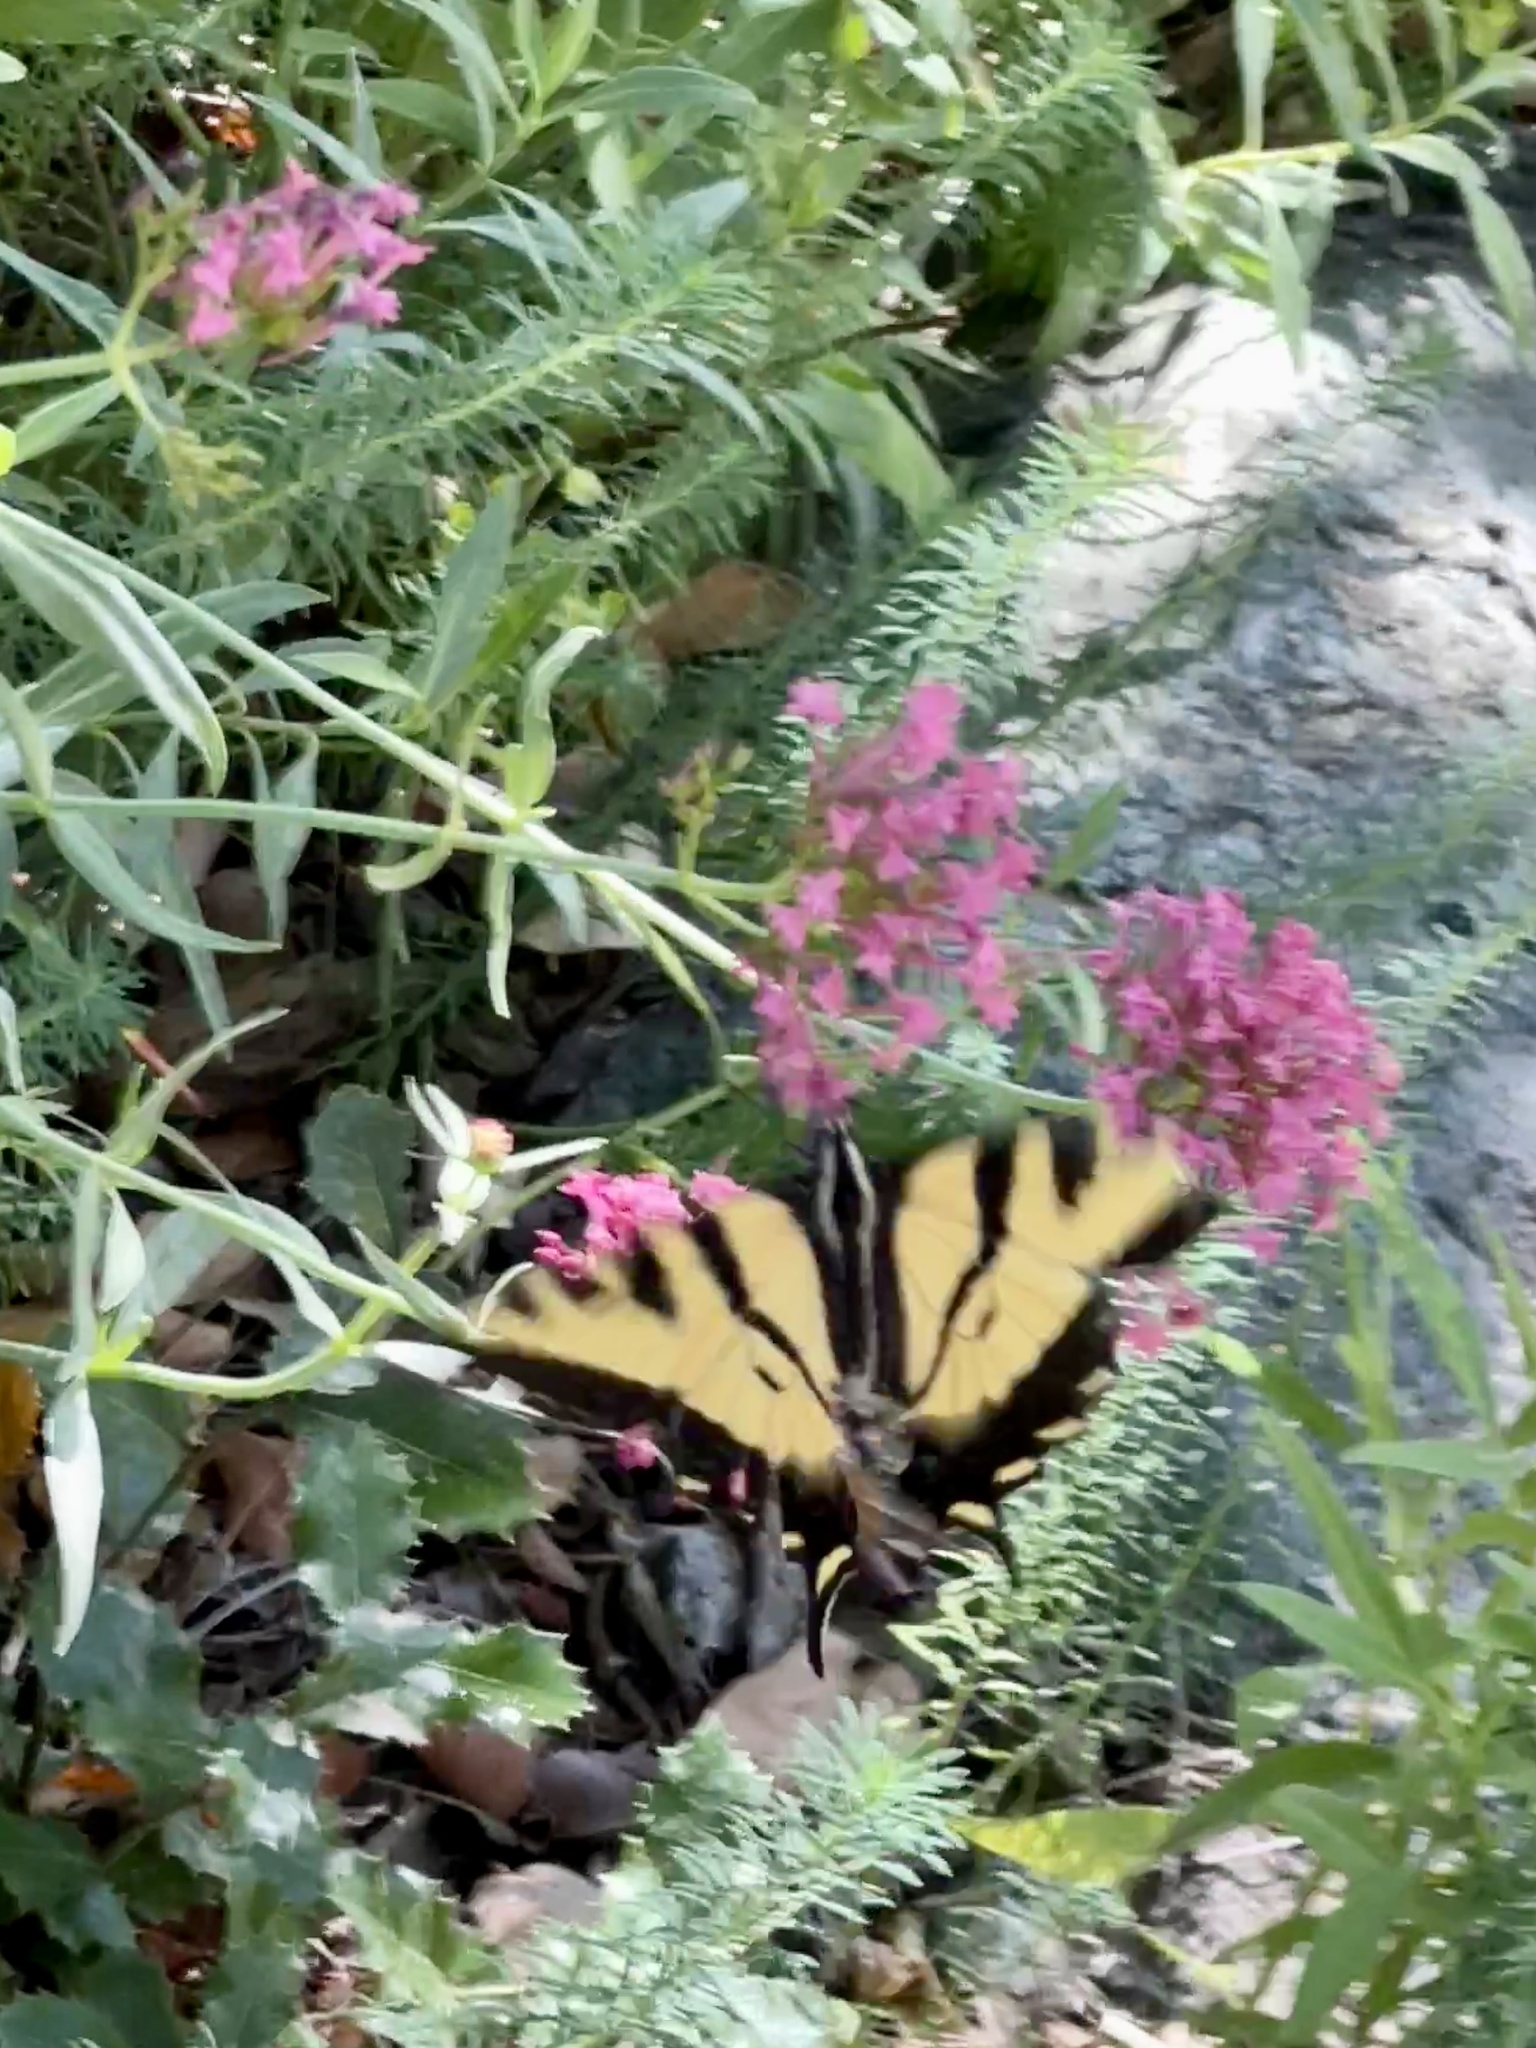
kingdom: Animalia
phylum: Arthropoda
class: Insecta
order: Lepidoptera
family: Papilionidae
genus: Papilio
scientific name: Papilio rutulus
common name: Western tiger swallowtail
